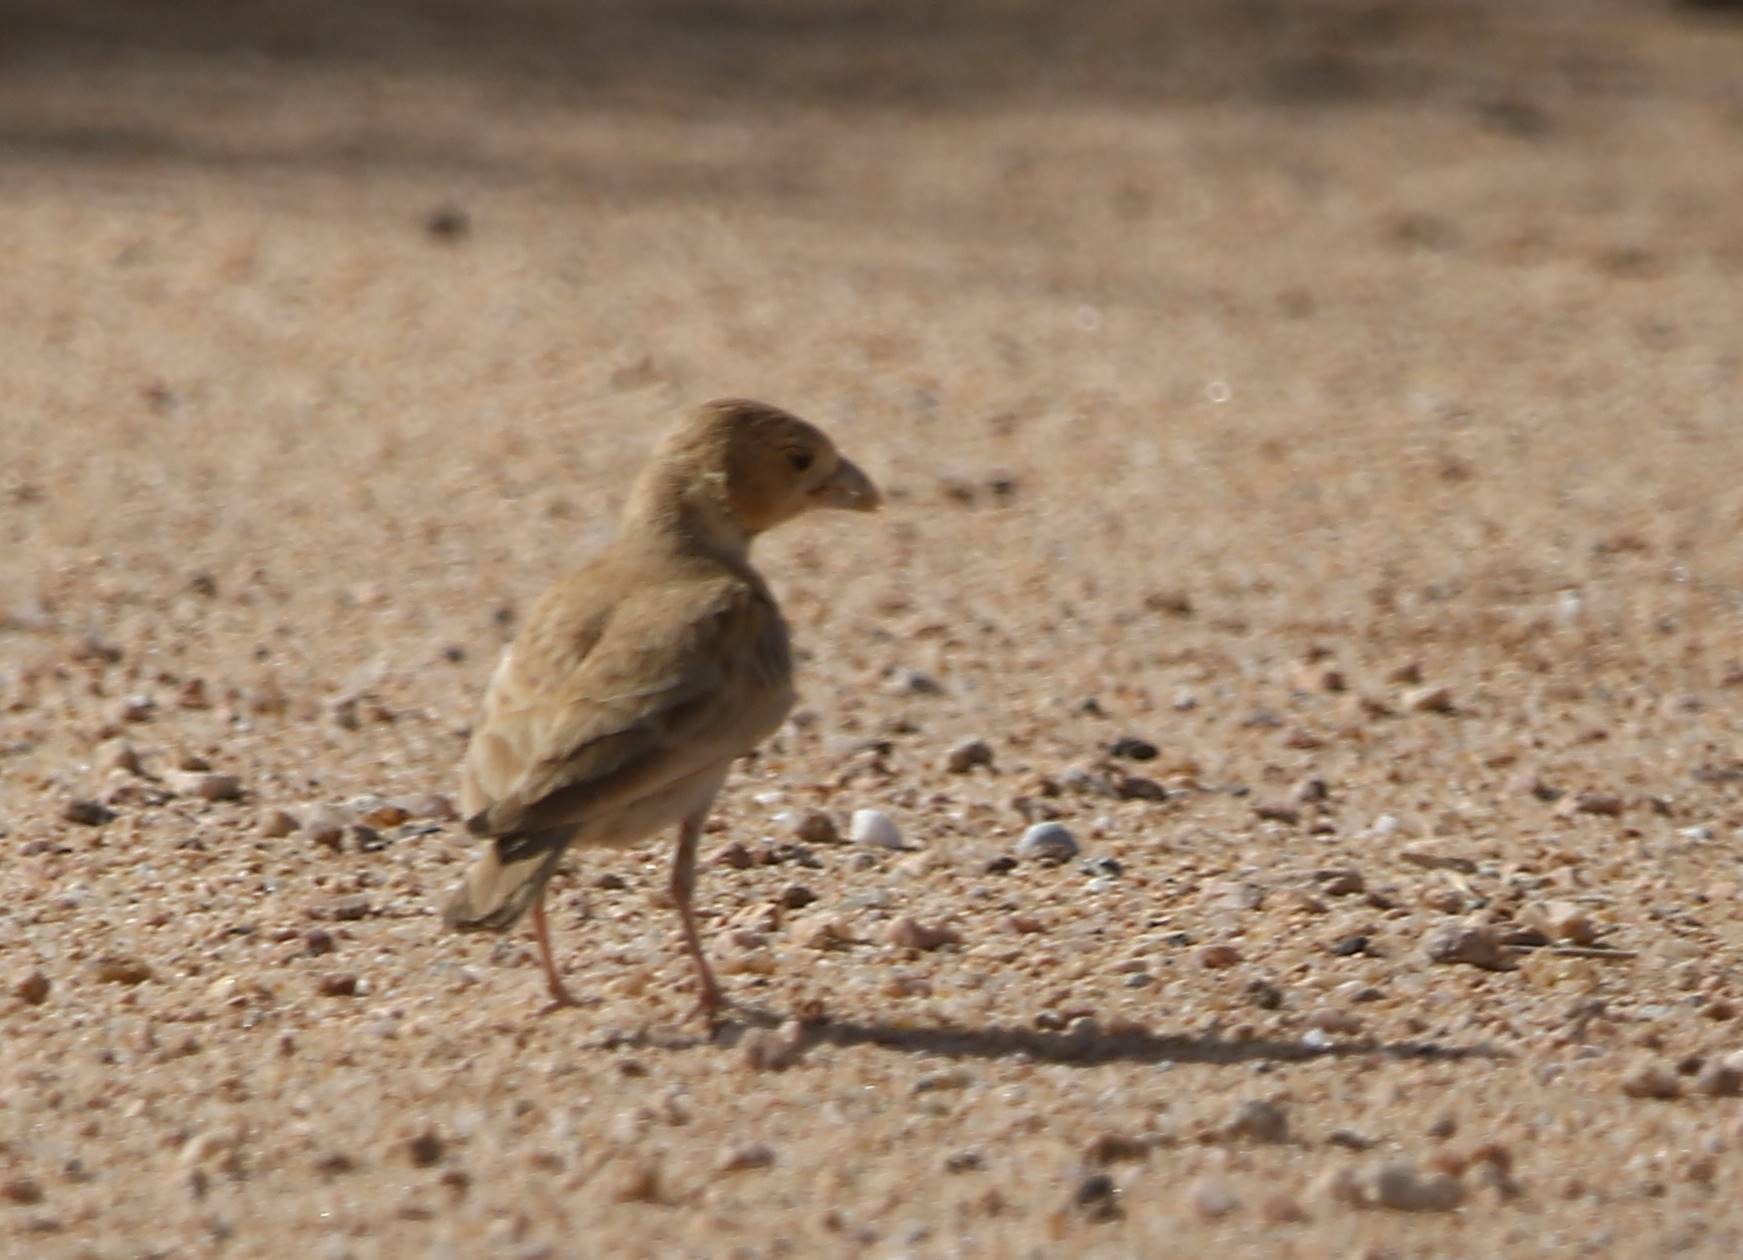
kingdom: Animalia
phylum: Chordata
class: Aves
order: Passeriformes
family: Alaudidae
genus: Eremopterix
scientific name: Eremopterix nigriceps
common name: Black-crowned sparrow-lark
